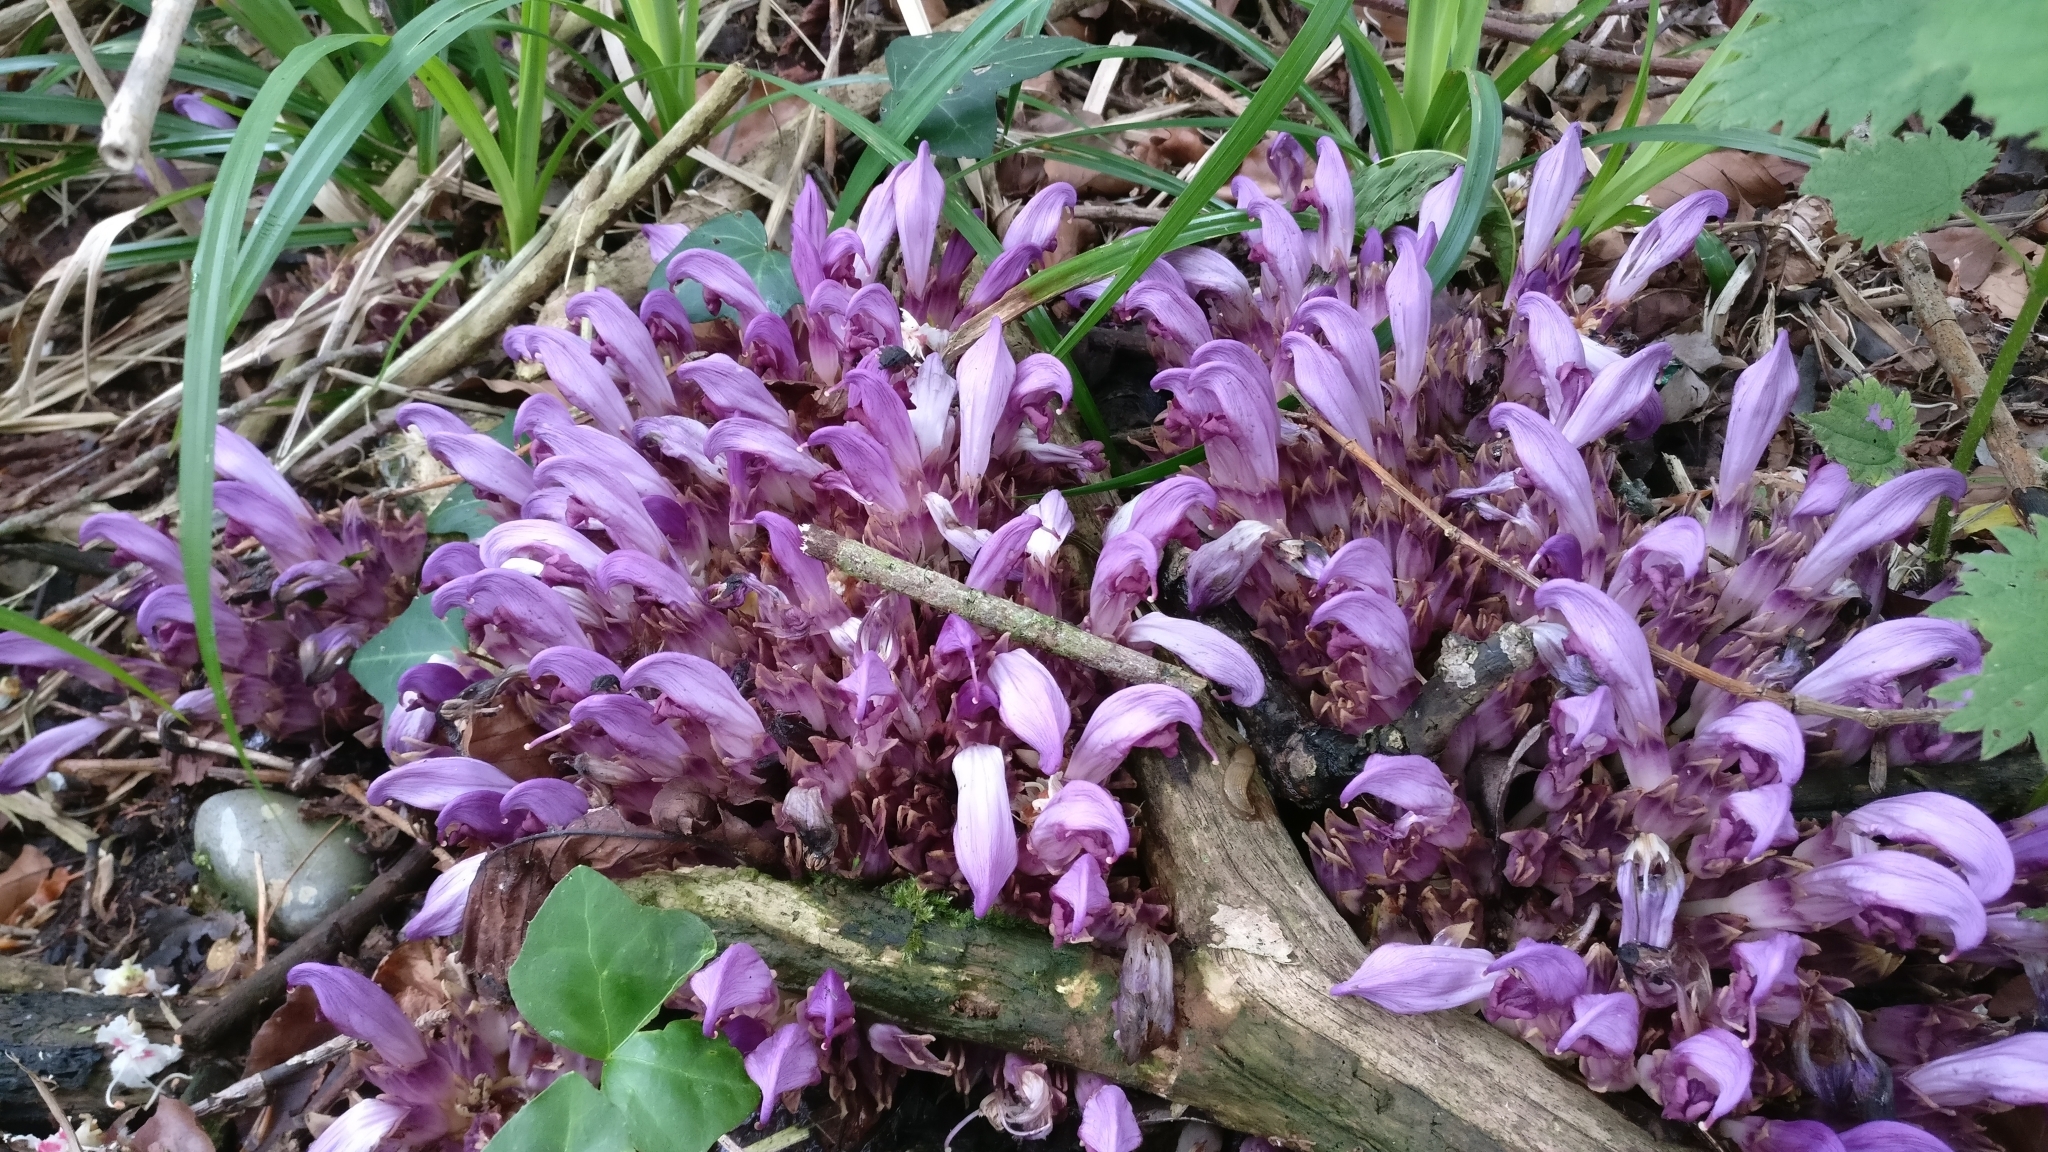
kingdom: Plantae
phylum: Tracheophyta
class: Magnoliopsida
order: Lamiales
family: Orobanchaceae
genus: Lathraea
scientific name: Lathraea clandestina
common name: Purple toothwort
